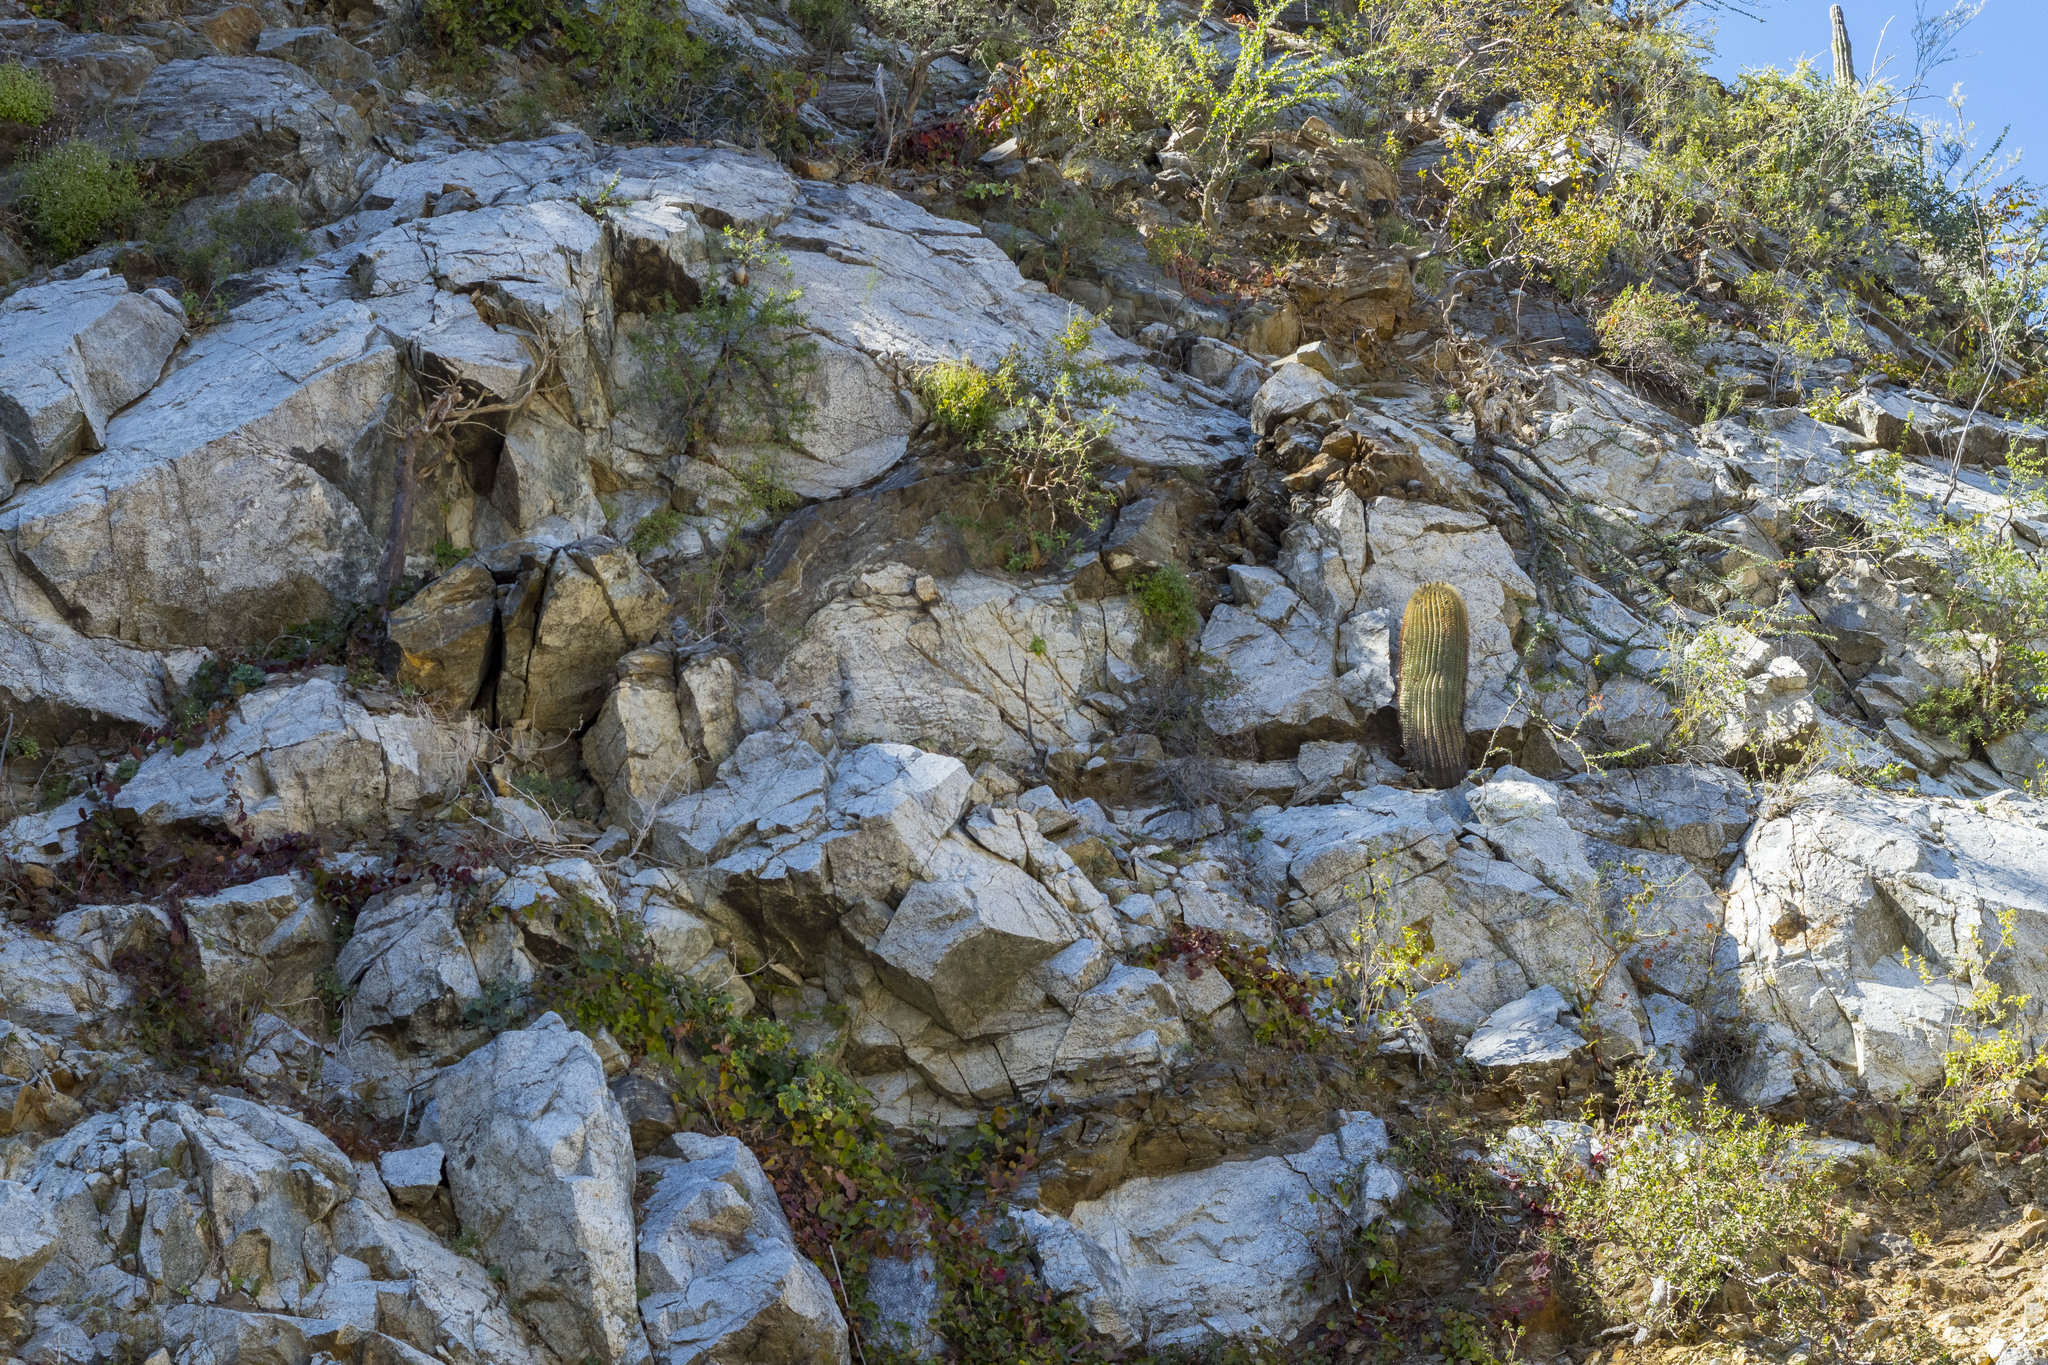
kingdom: Plantae
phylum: Tracheophyta
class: Magnoliopsida
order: Caryophyllales
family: Cactaceae
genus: Ferocactus
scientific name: Ferocactus diguetii
